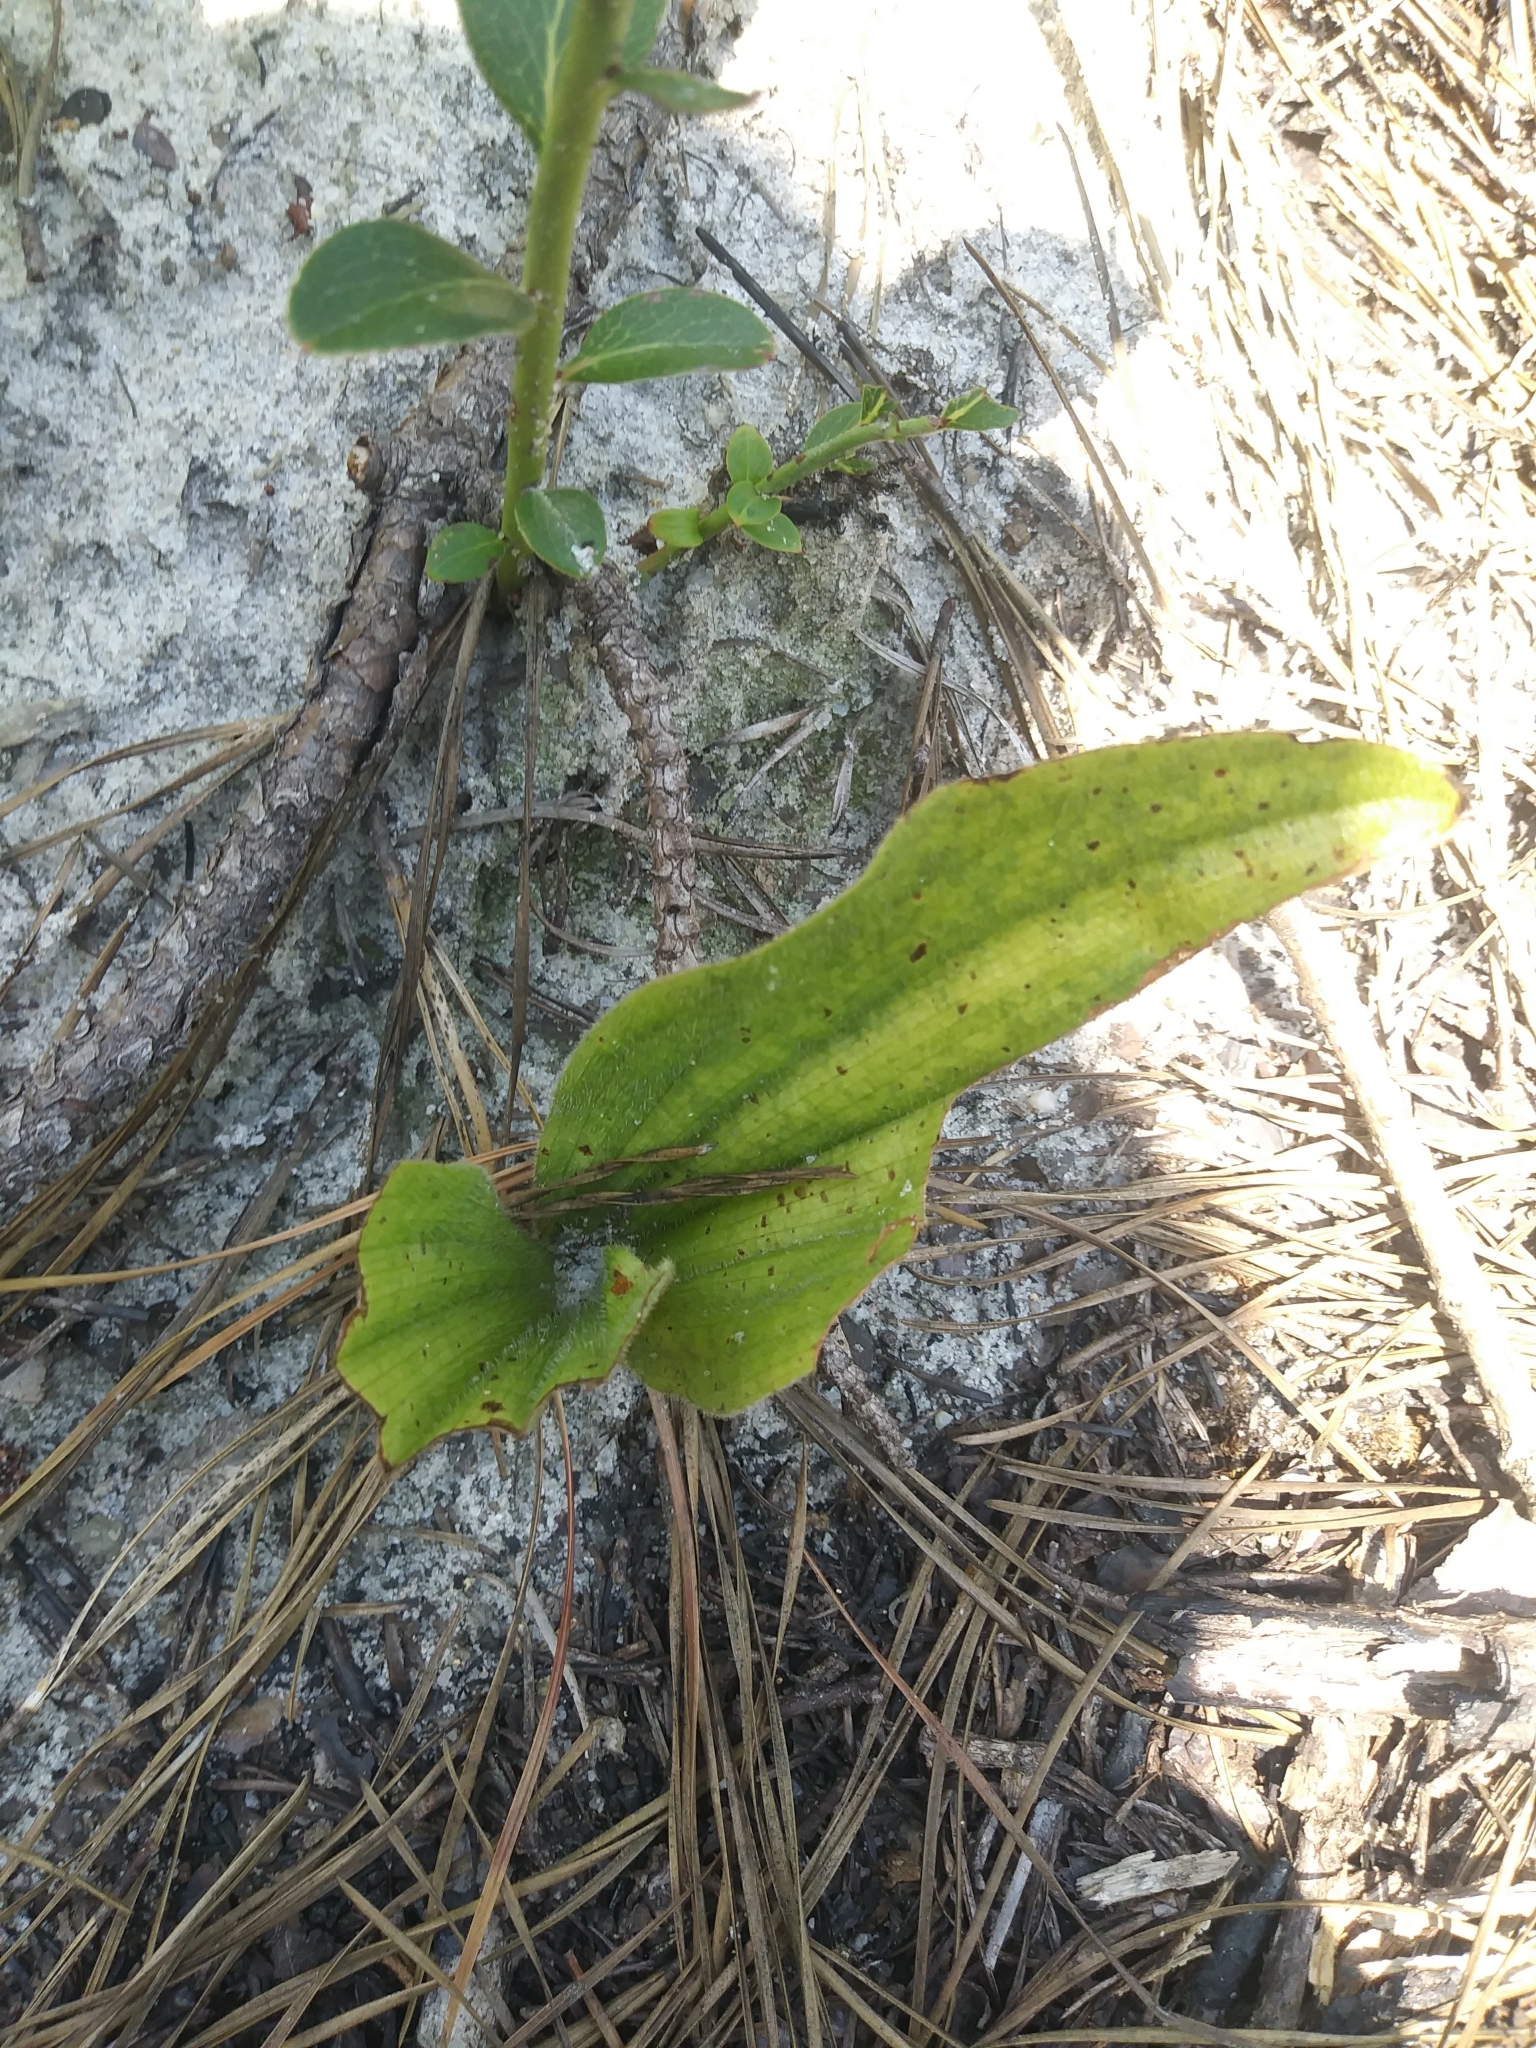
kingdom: Plantae
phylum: Tracheophyta
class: Liliopsida
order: Asparagales
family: Orchidaceae
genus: Cypripedium
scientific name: Cypripedium acaule
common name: Pink lady's-slipper
